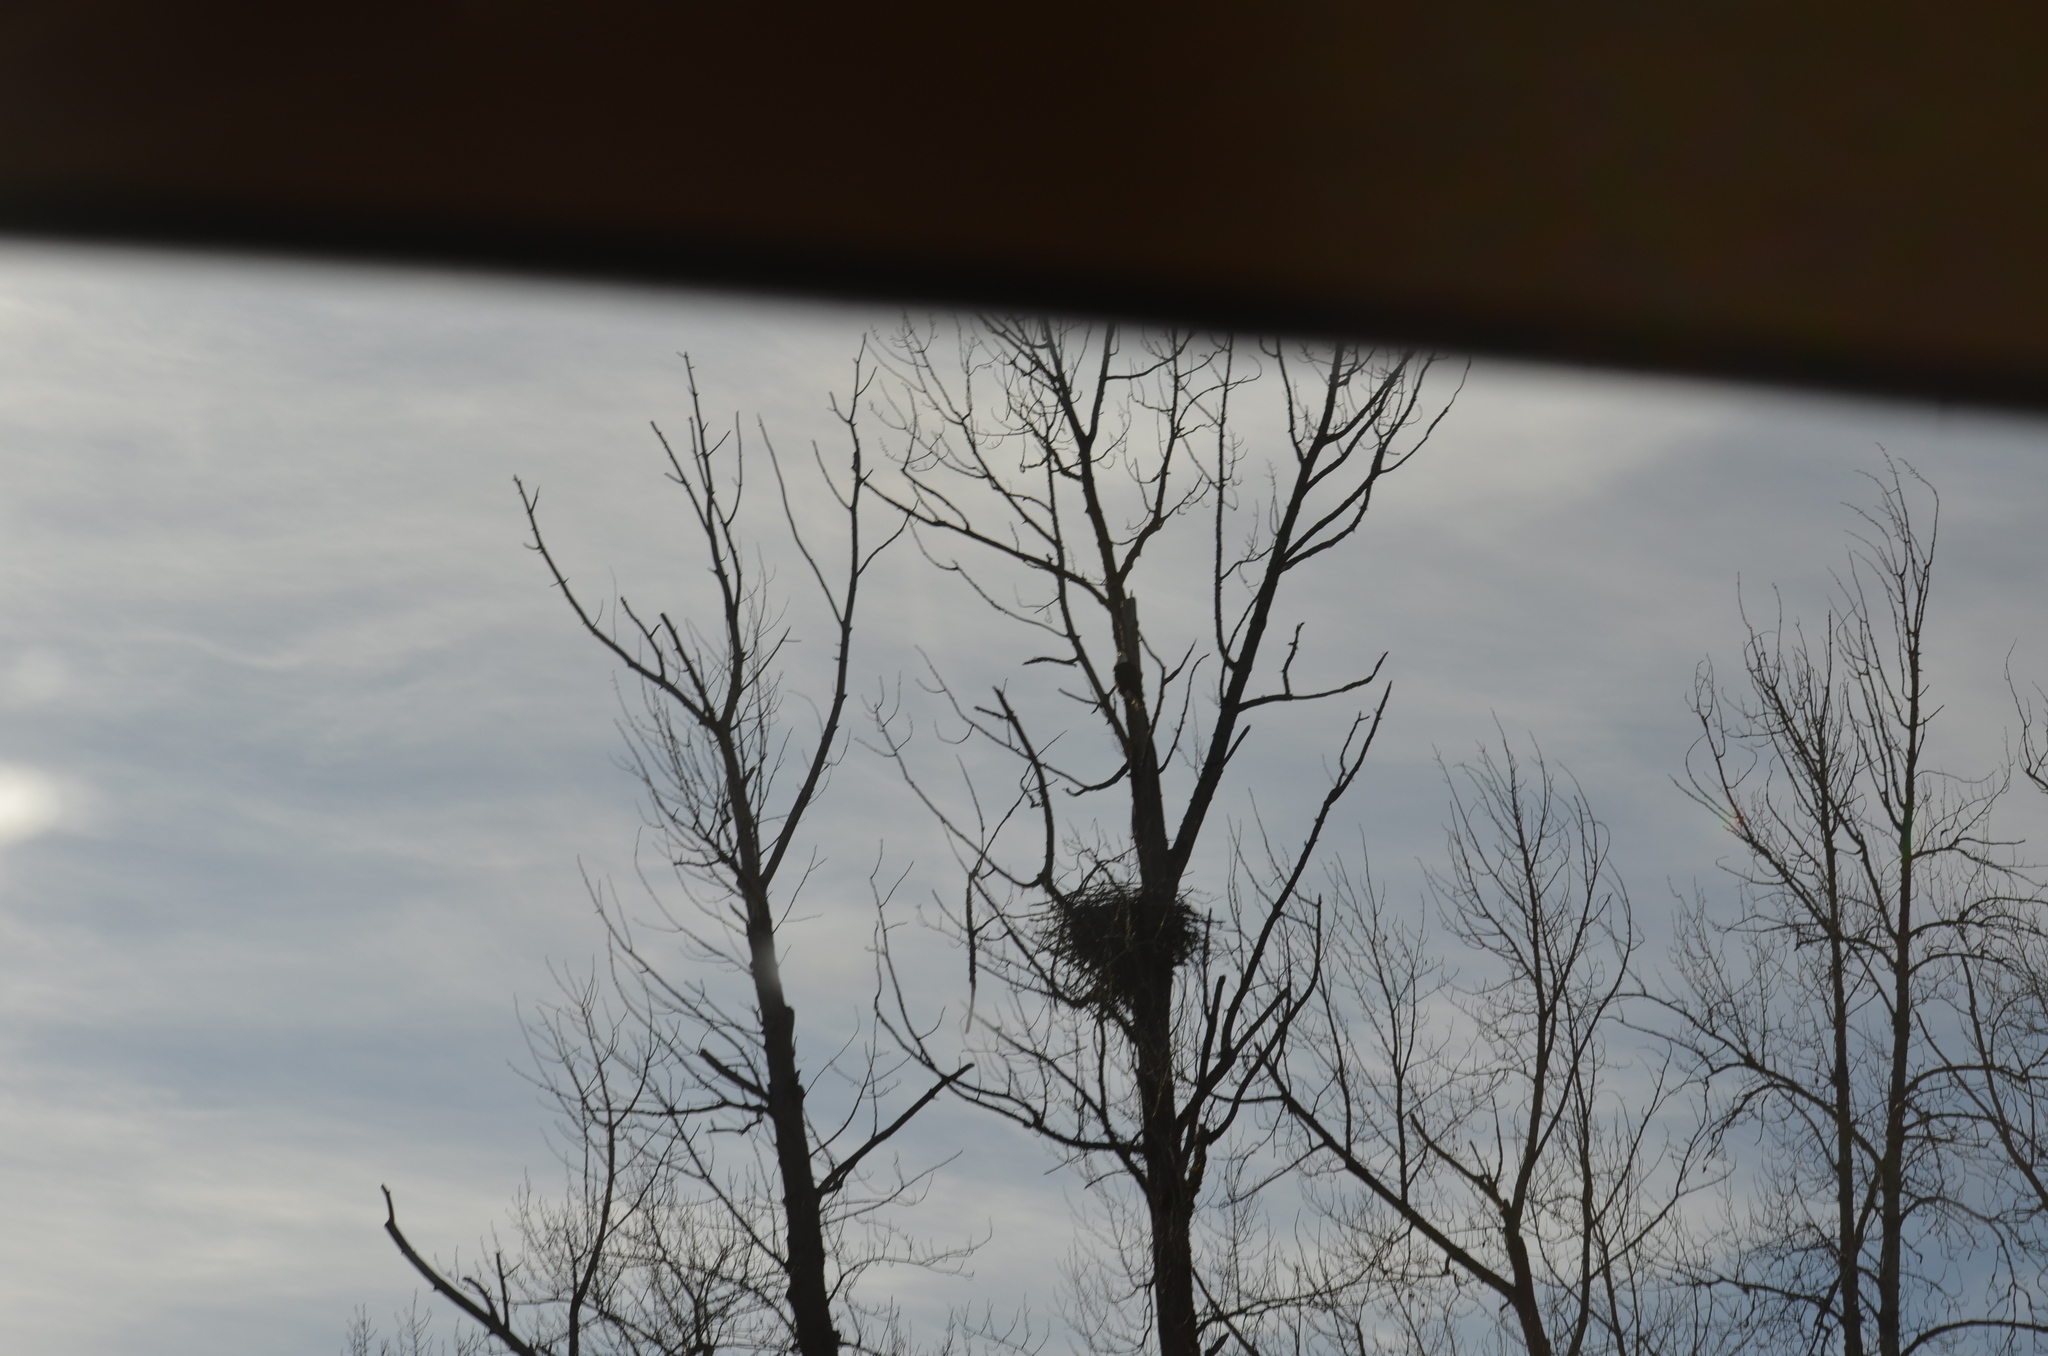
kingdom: Animalia
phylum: Chordata
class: Aves
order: Accipitriformes
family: Accipitridae
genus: Haliaeetus
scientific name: Haliaeetus leucocephalus
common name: Bald eagle
